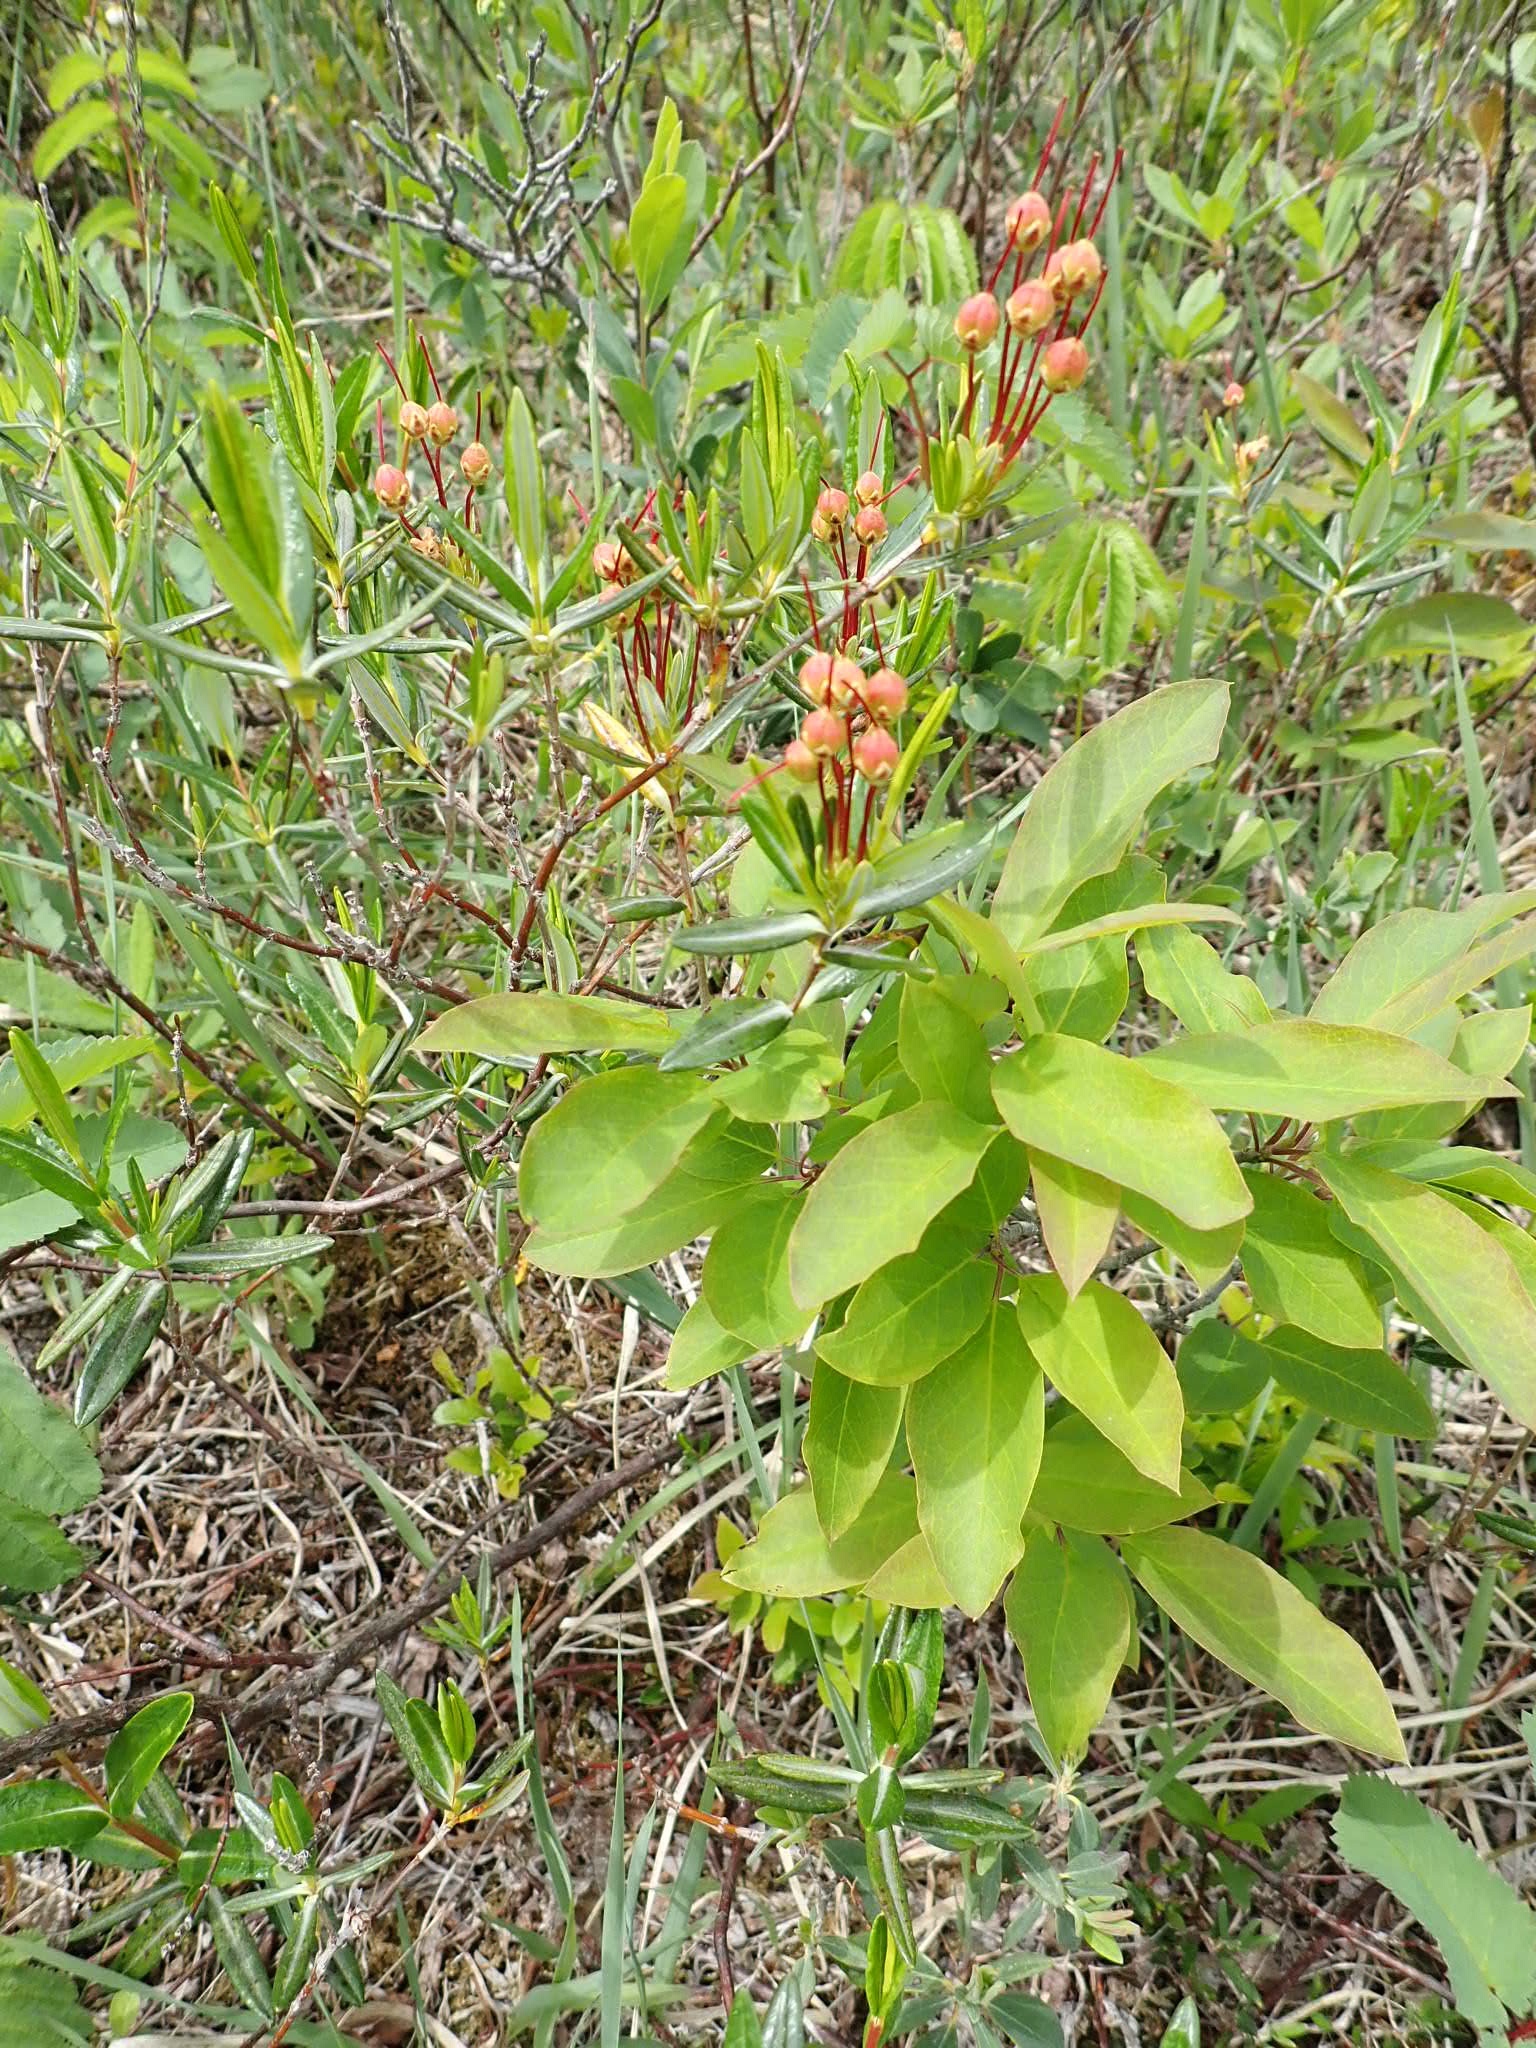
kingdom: Plantae
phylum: Tracheophyta
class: Magnoliopsida
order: Ericales
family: Ericaceae
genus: Kalmia
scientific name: Kalmia polifolia
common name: Bog-laurel
